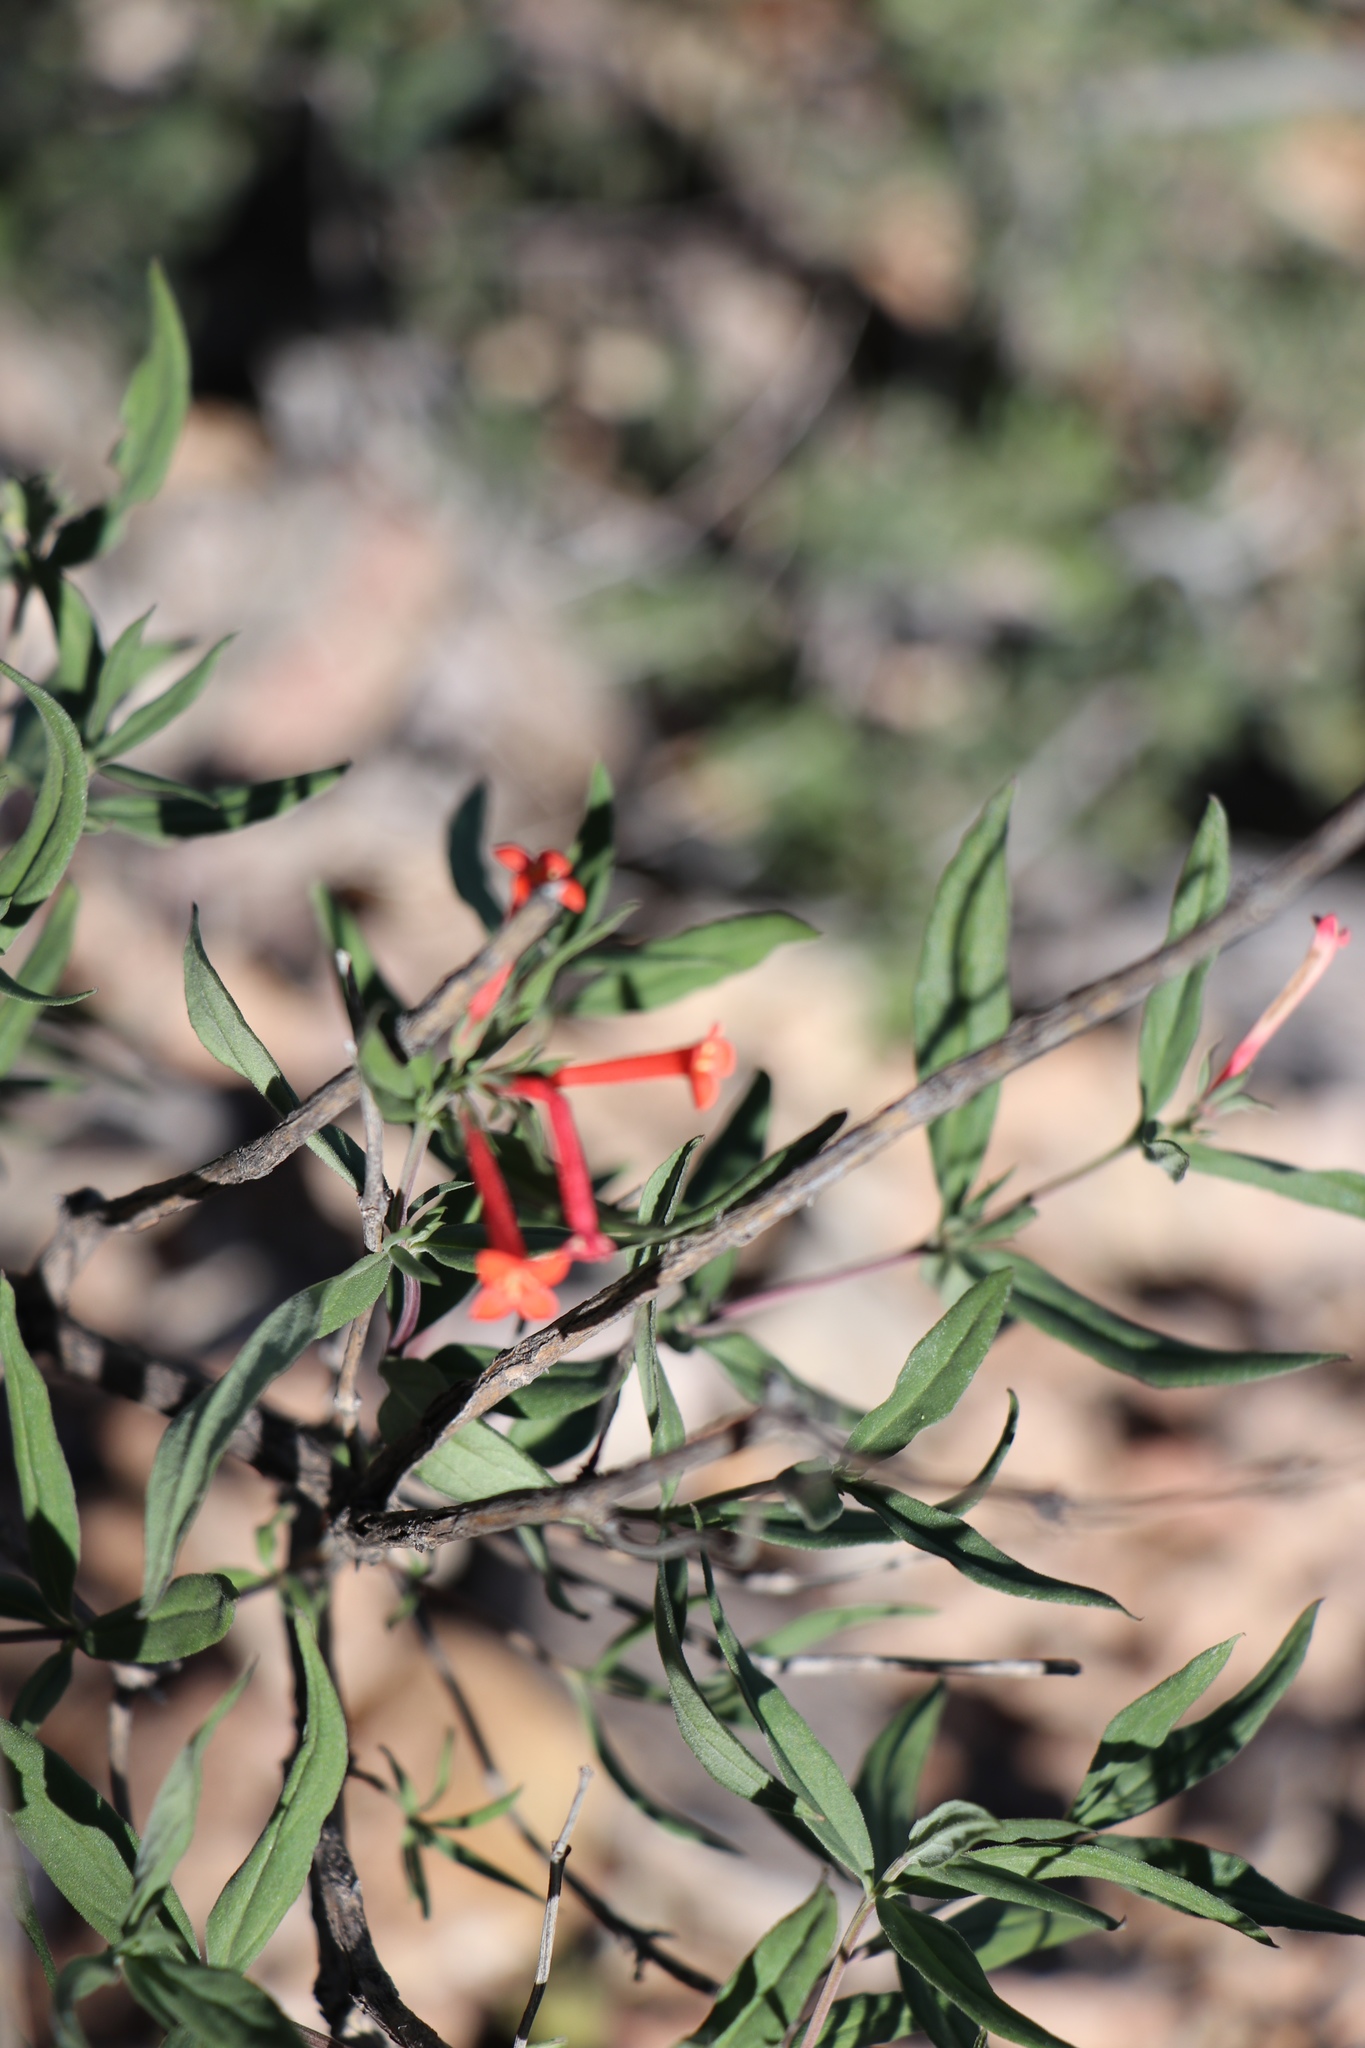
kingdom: Plantae
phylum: Tracheophyta
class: Magnoliopsida
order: Gentianales
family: Rubiaceae
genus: Bouvardia
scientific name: Bouvardia ternifolia
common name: Scarlet bouvardia
